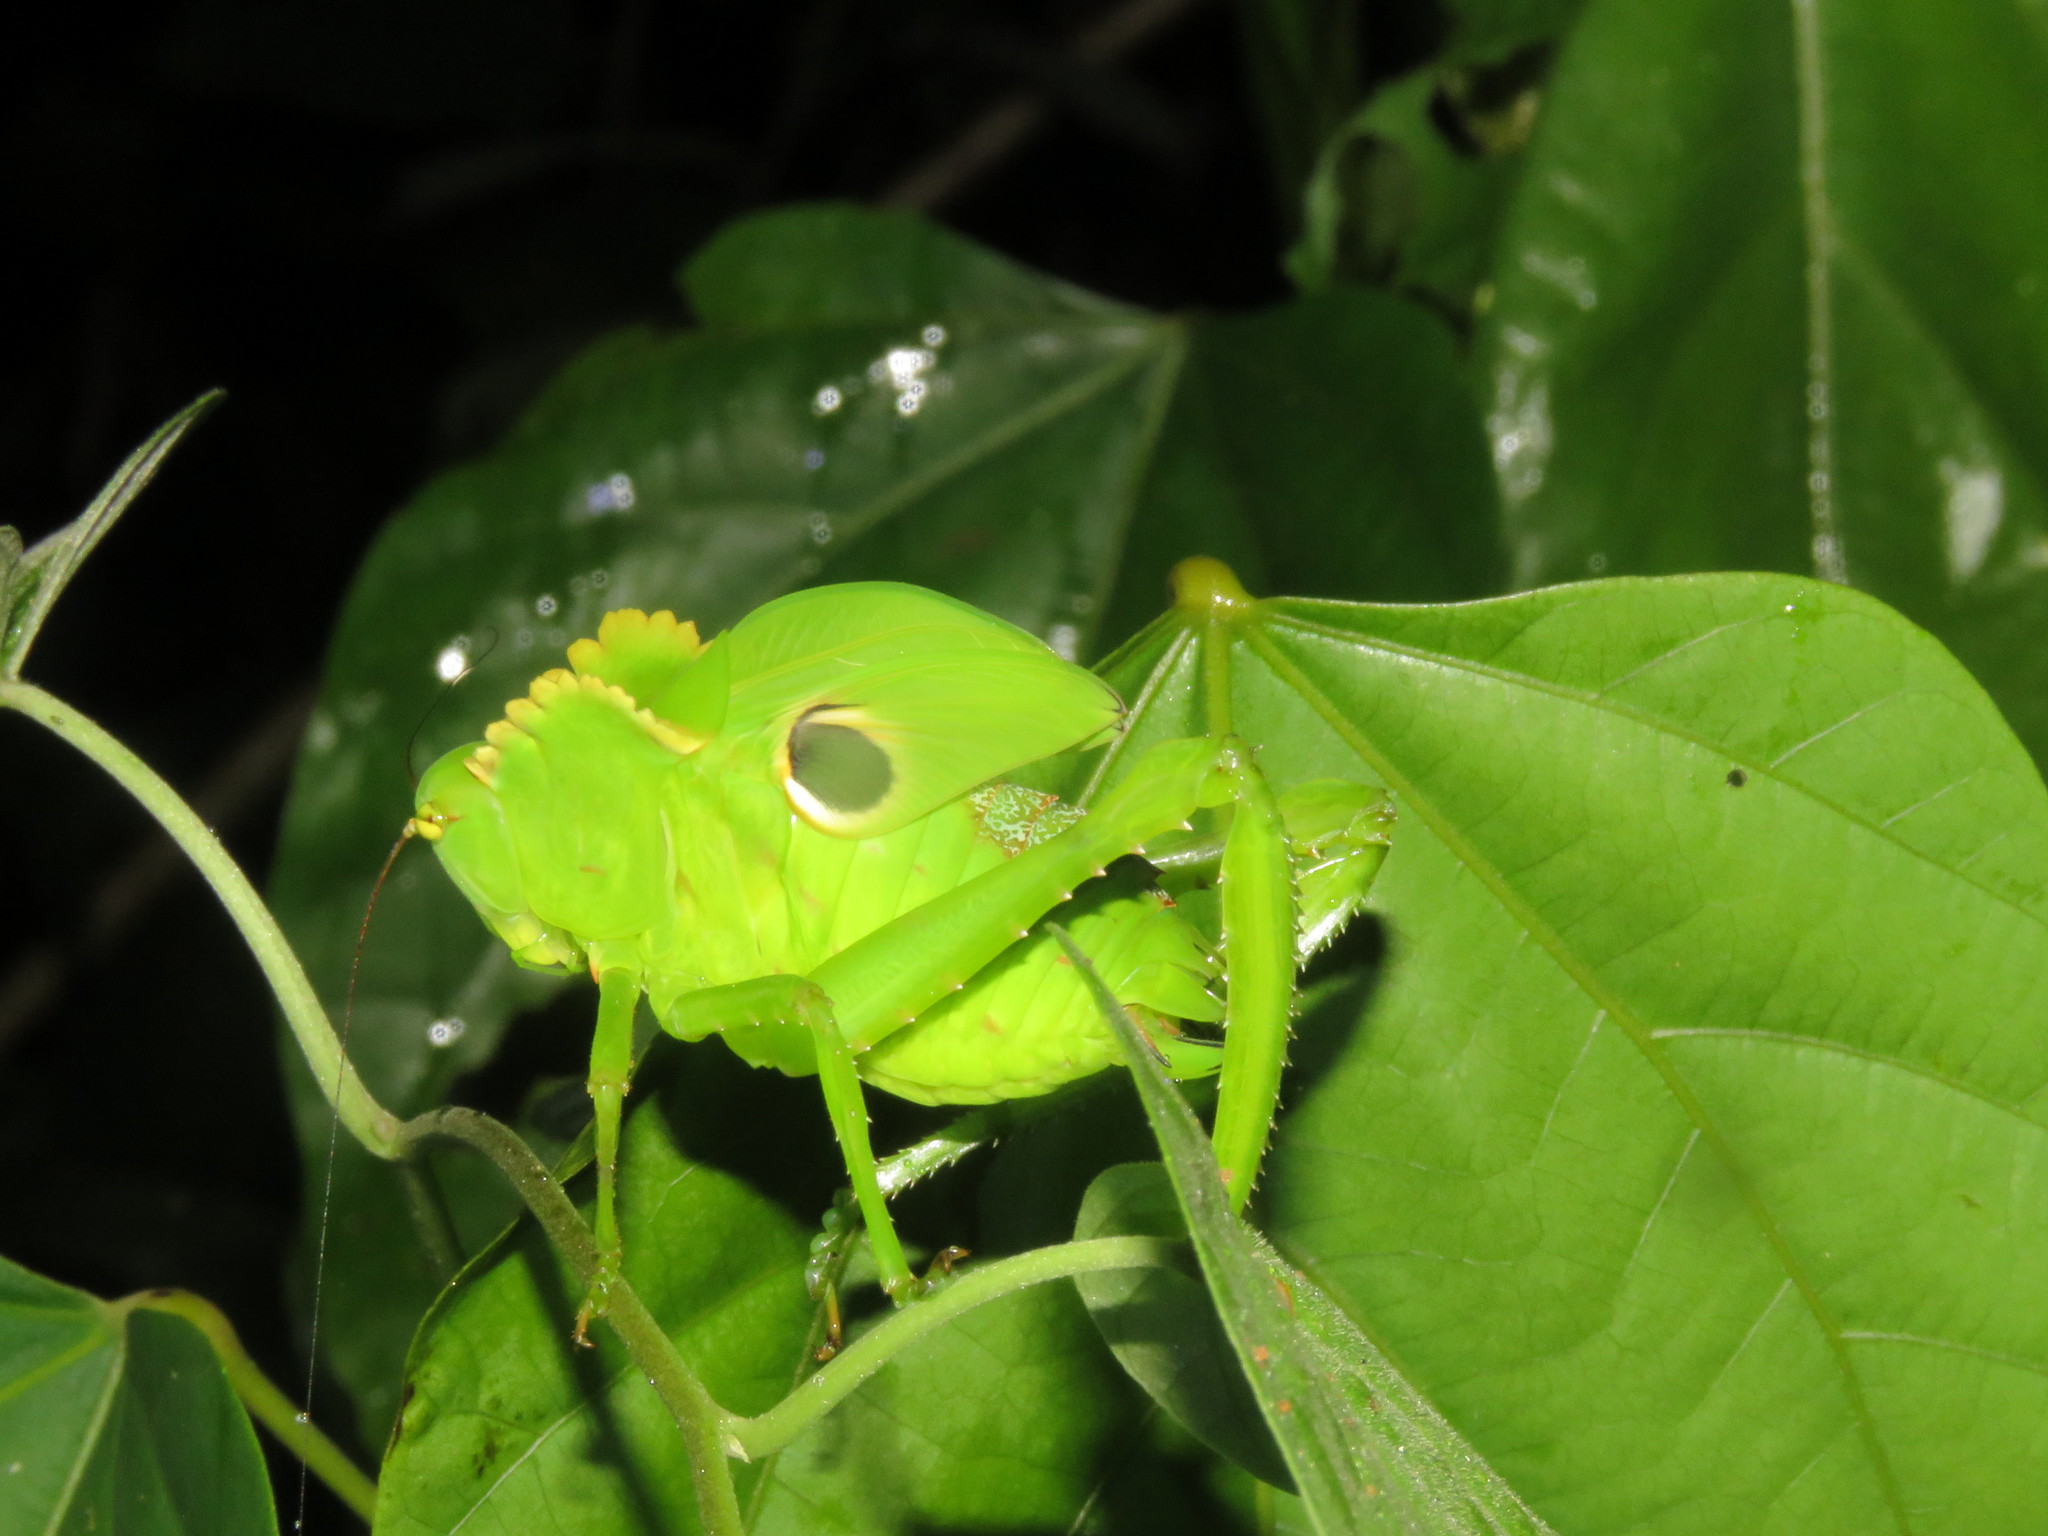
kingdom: Animalia
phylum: Arthropoda
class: Insecta
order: Orthoptera
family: Tettigoniidae
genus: Cnemidophyllum
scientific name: Cnemidophyllum citrifolium
